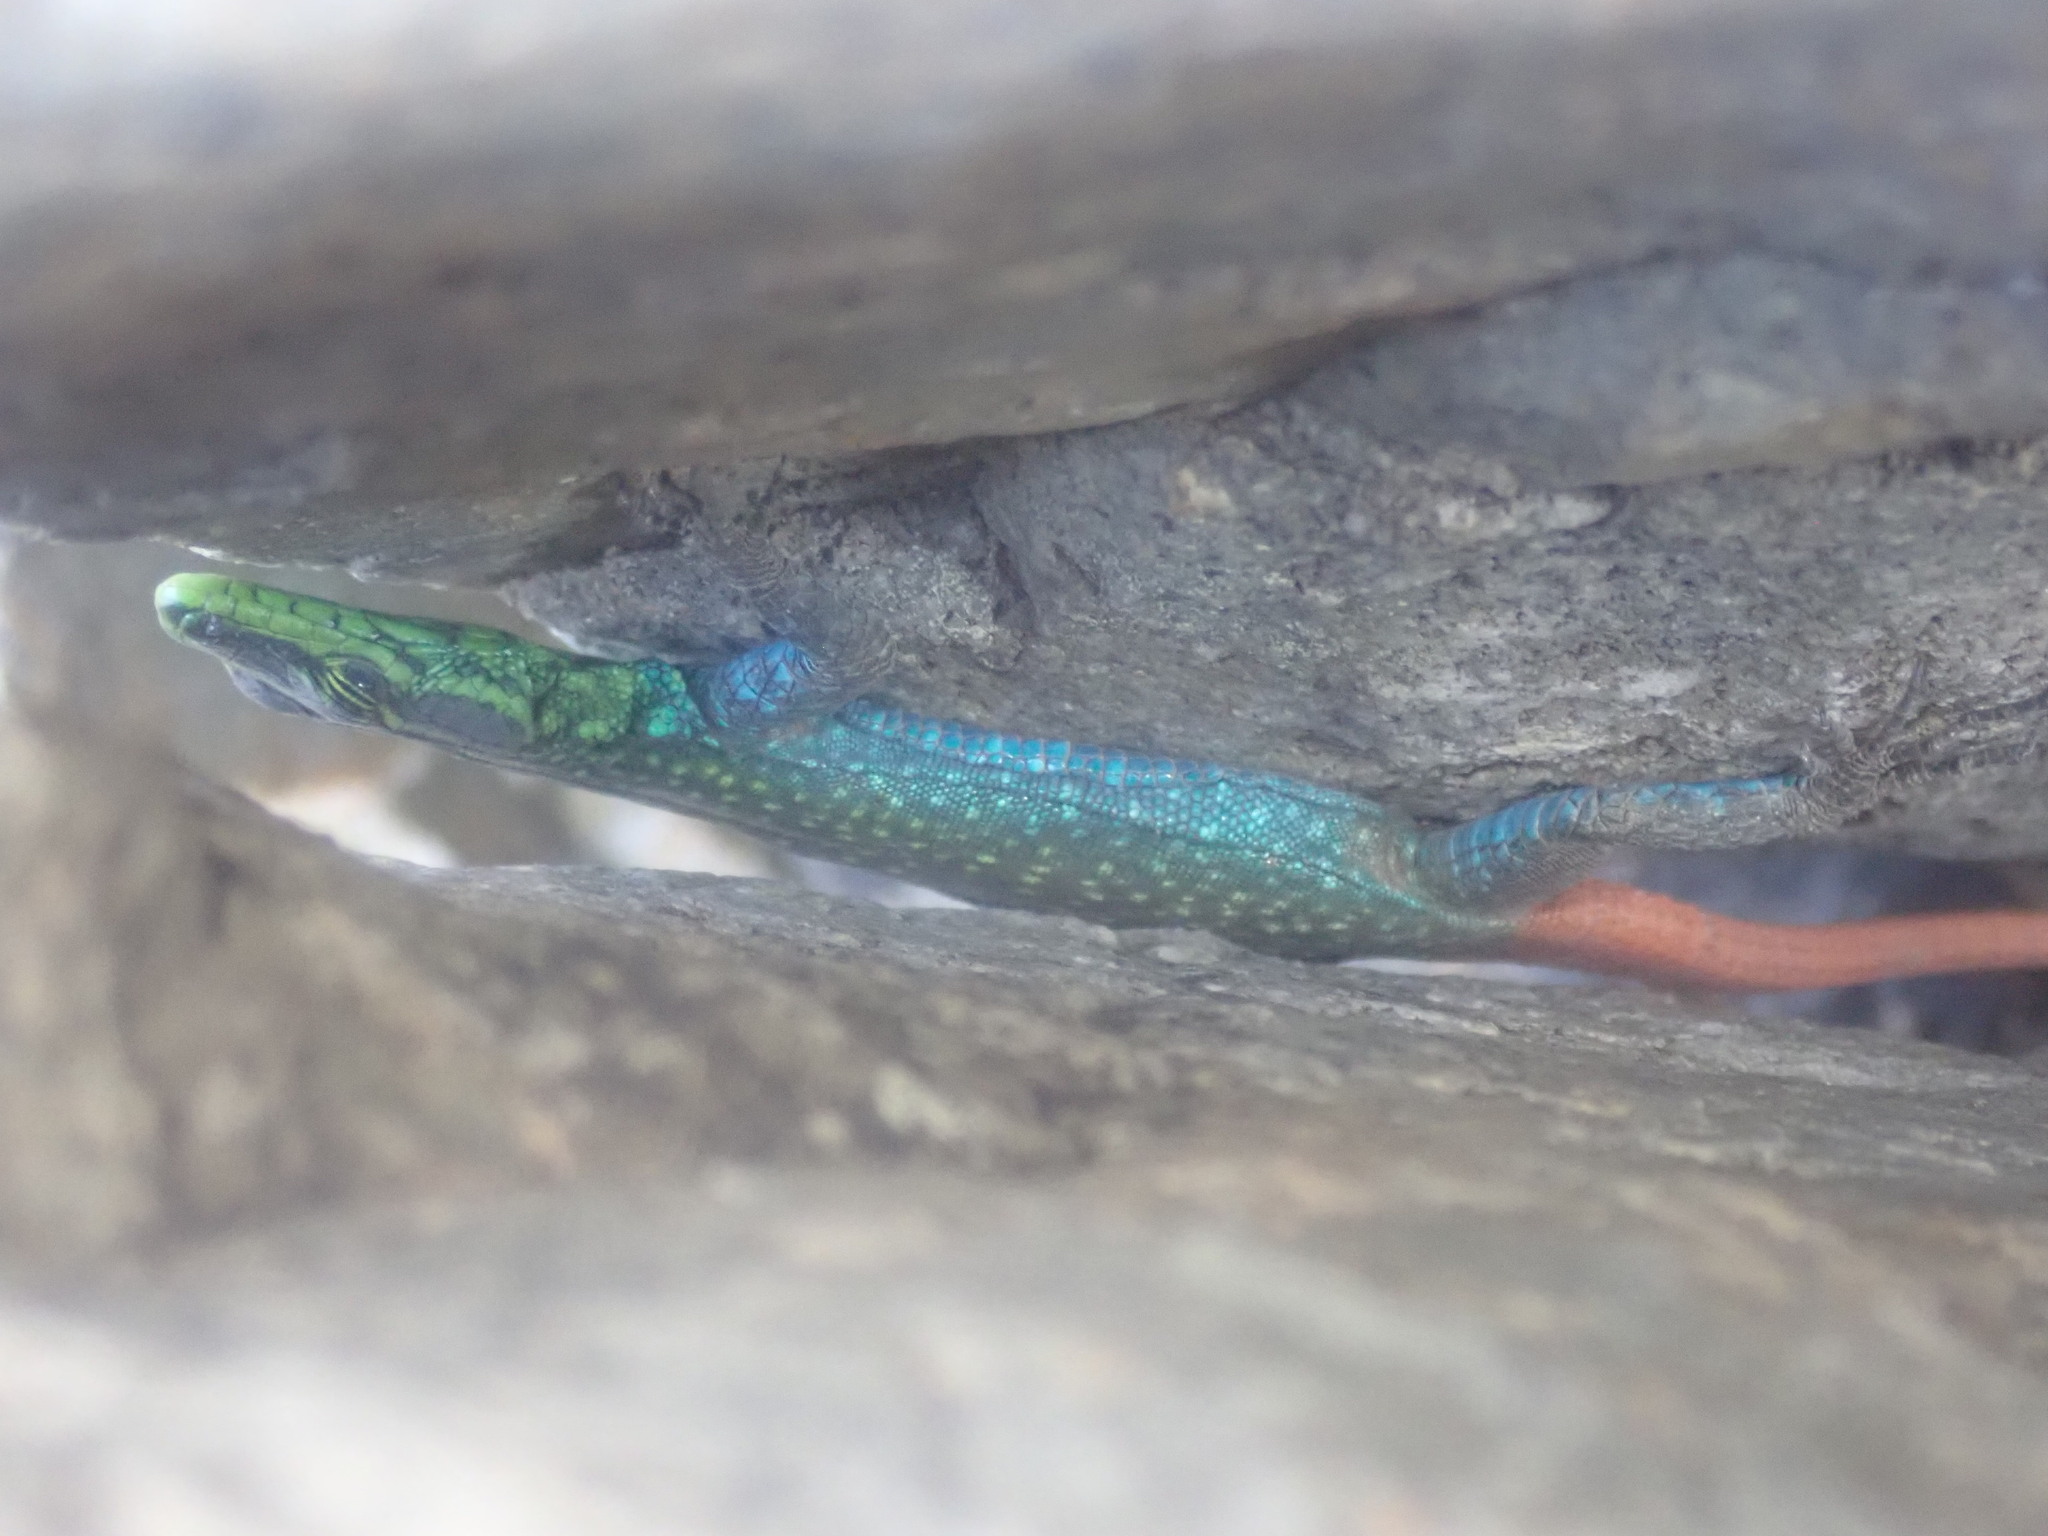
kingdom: Animalia
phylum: Chordata
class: Squamata
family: Cordylidae
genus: Platysaurus
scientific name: Platysaurus orientalis
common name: Sekhukune flat lizard
